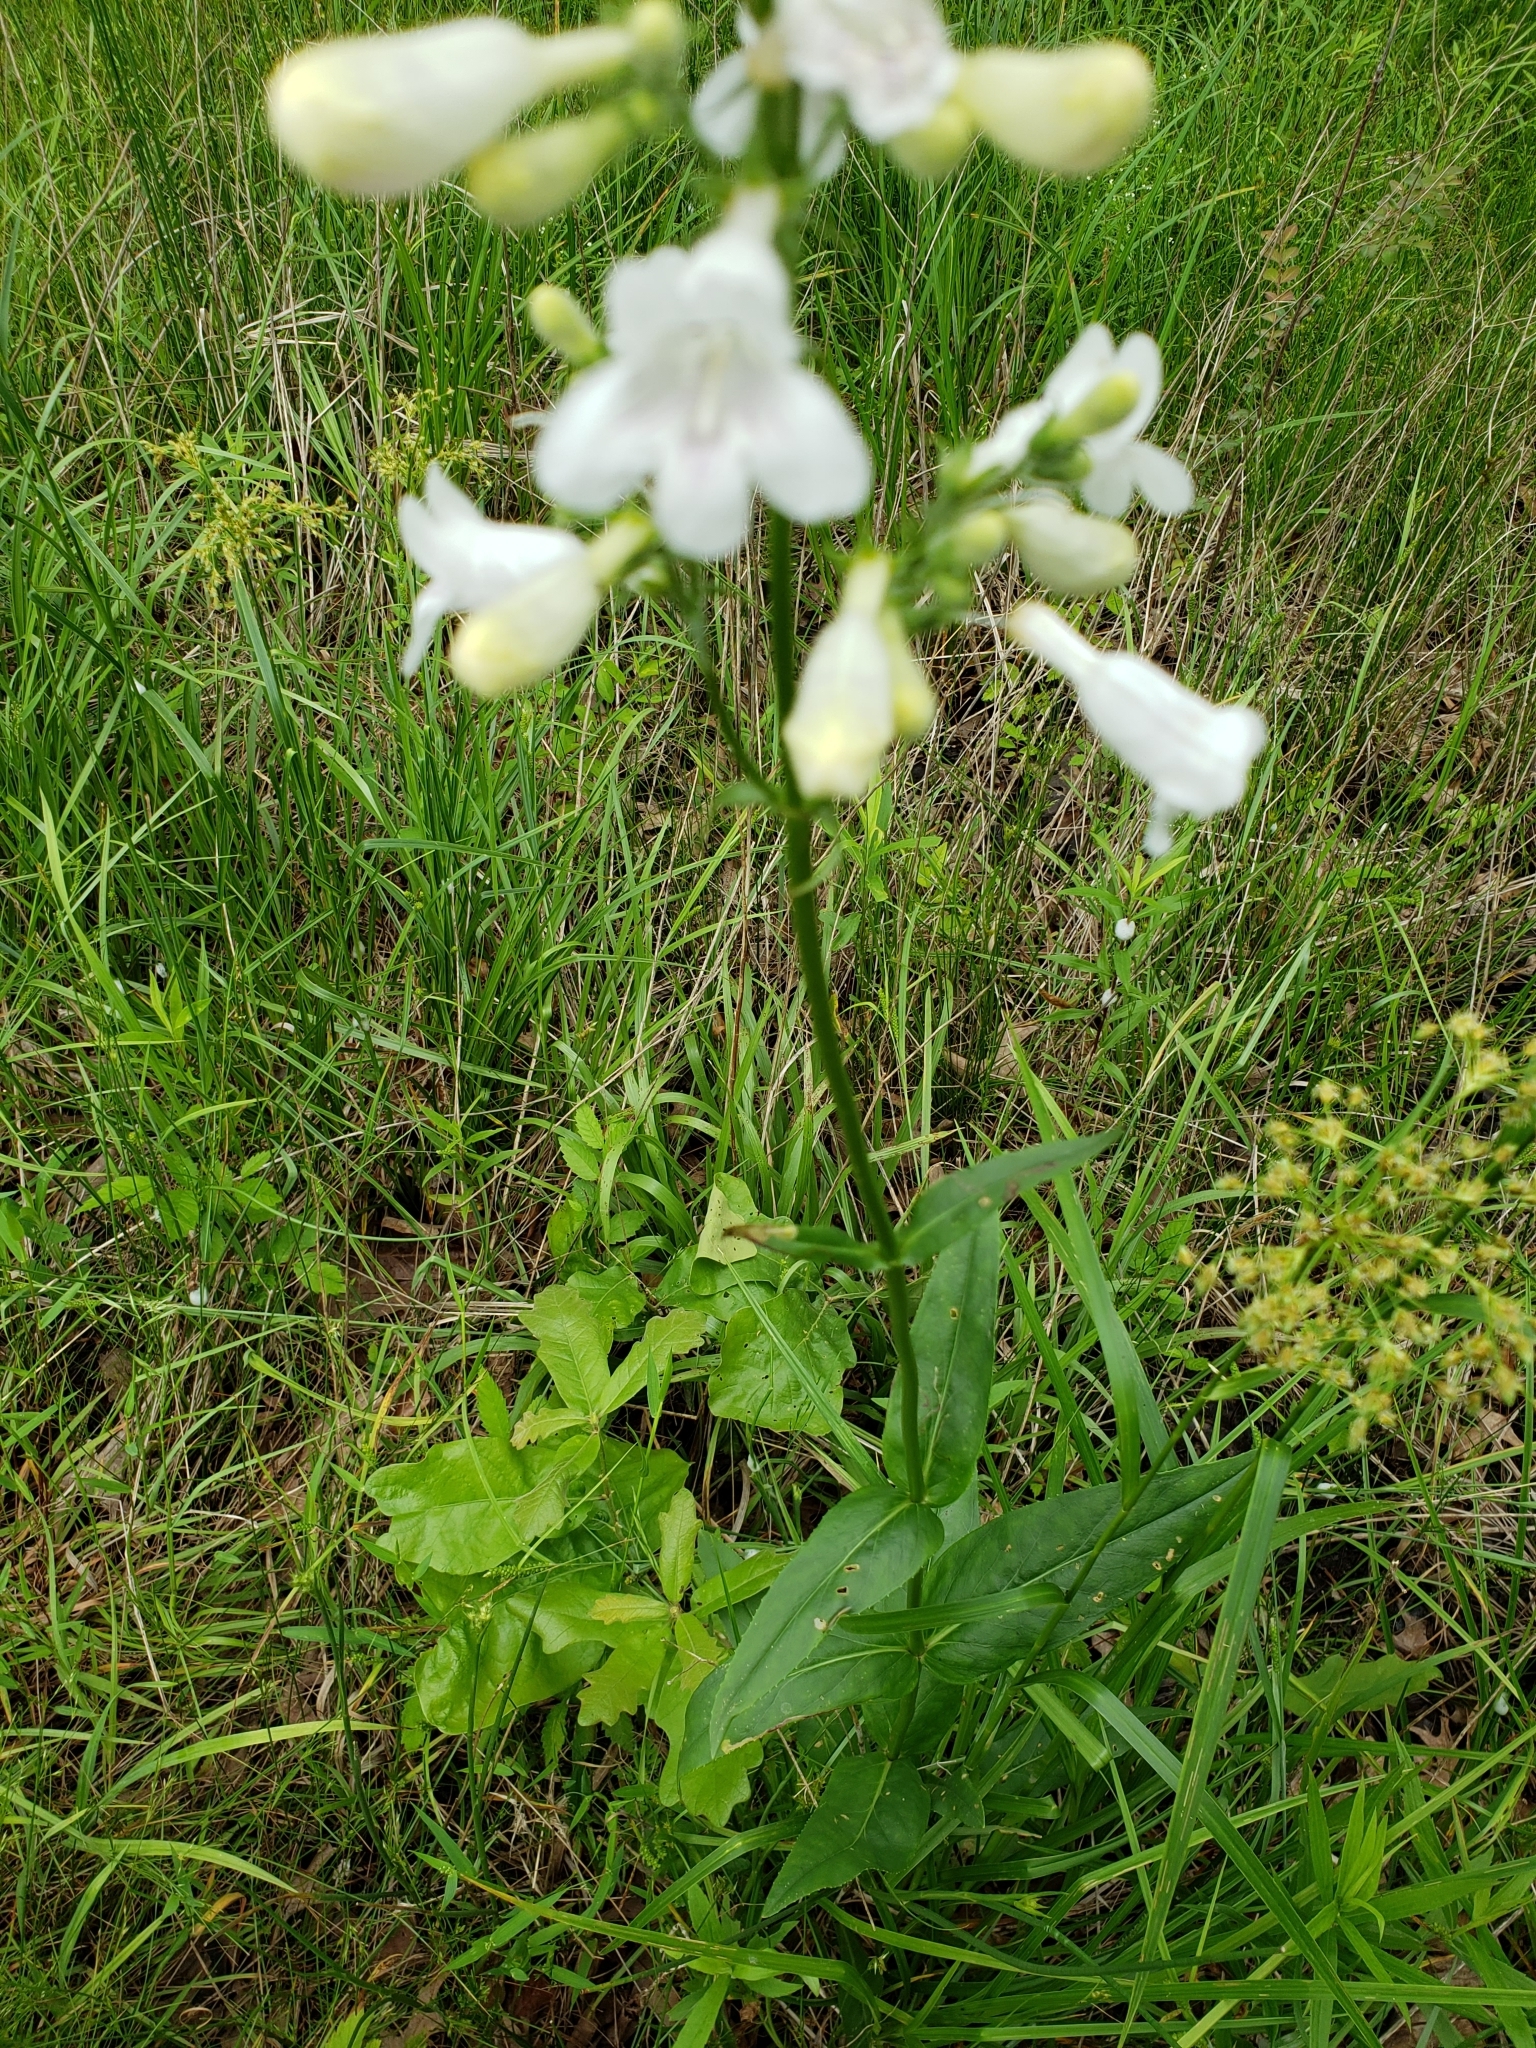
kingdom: Plantae
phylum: Tracheophyta
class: Magnoliopsida
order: Lamiales
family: Plantaginaceae
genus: Penstemon
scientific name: Penstemon digitalis
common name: Foxglove beardtongue
